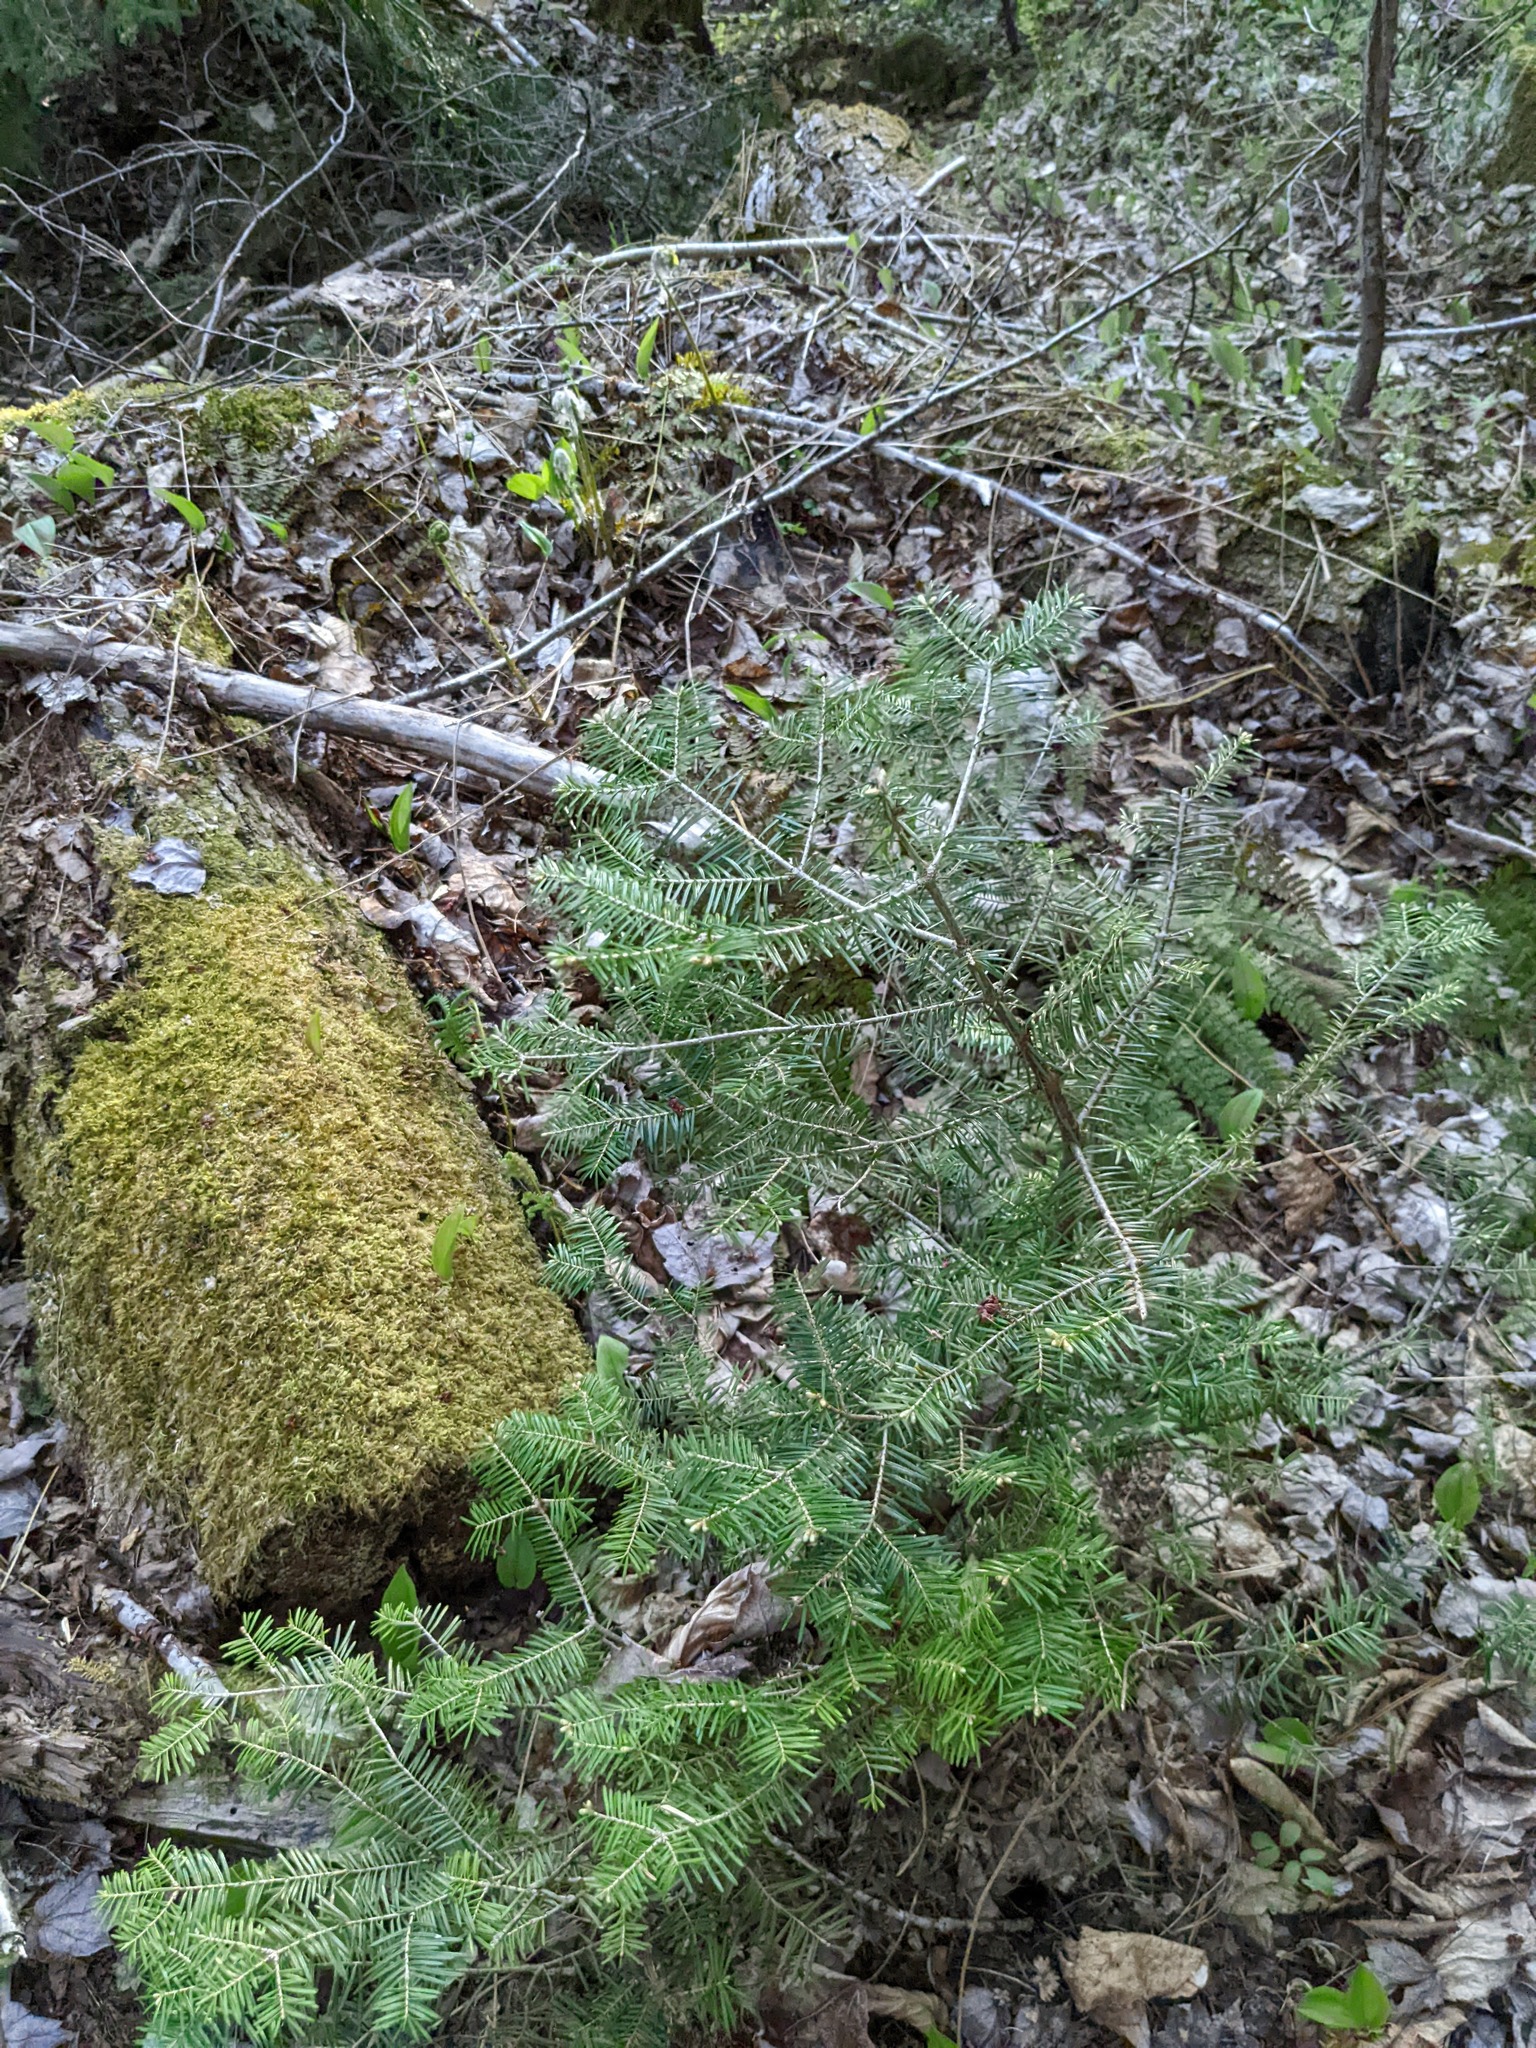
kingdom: Plantae
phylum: Tracheophyta
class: Pinopsida
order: Pinales
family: Pinaceae
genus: Abies
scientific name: Abies balsamea
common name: Balsam fir
